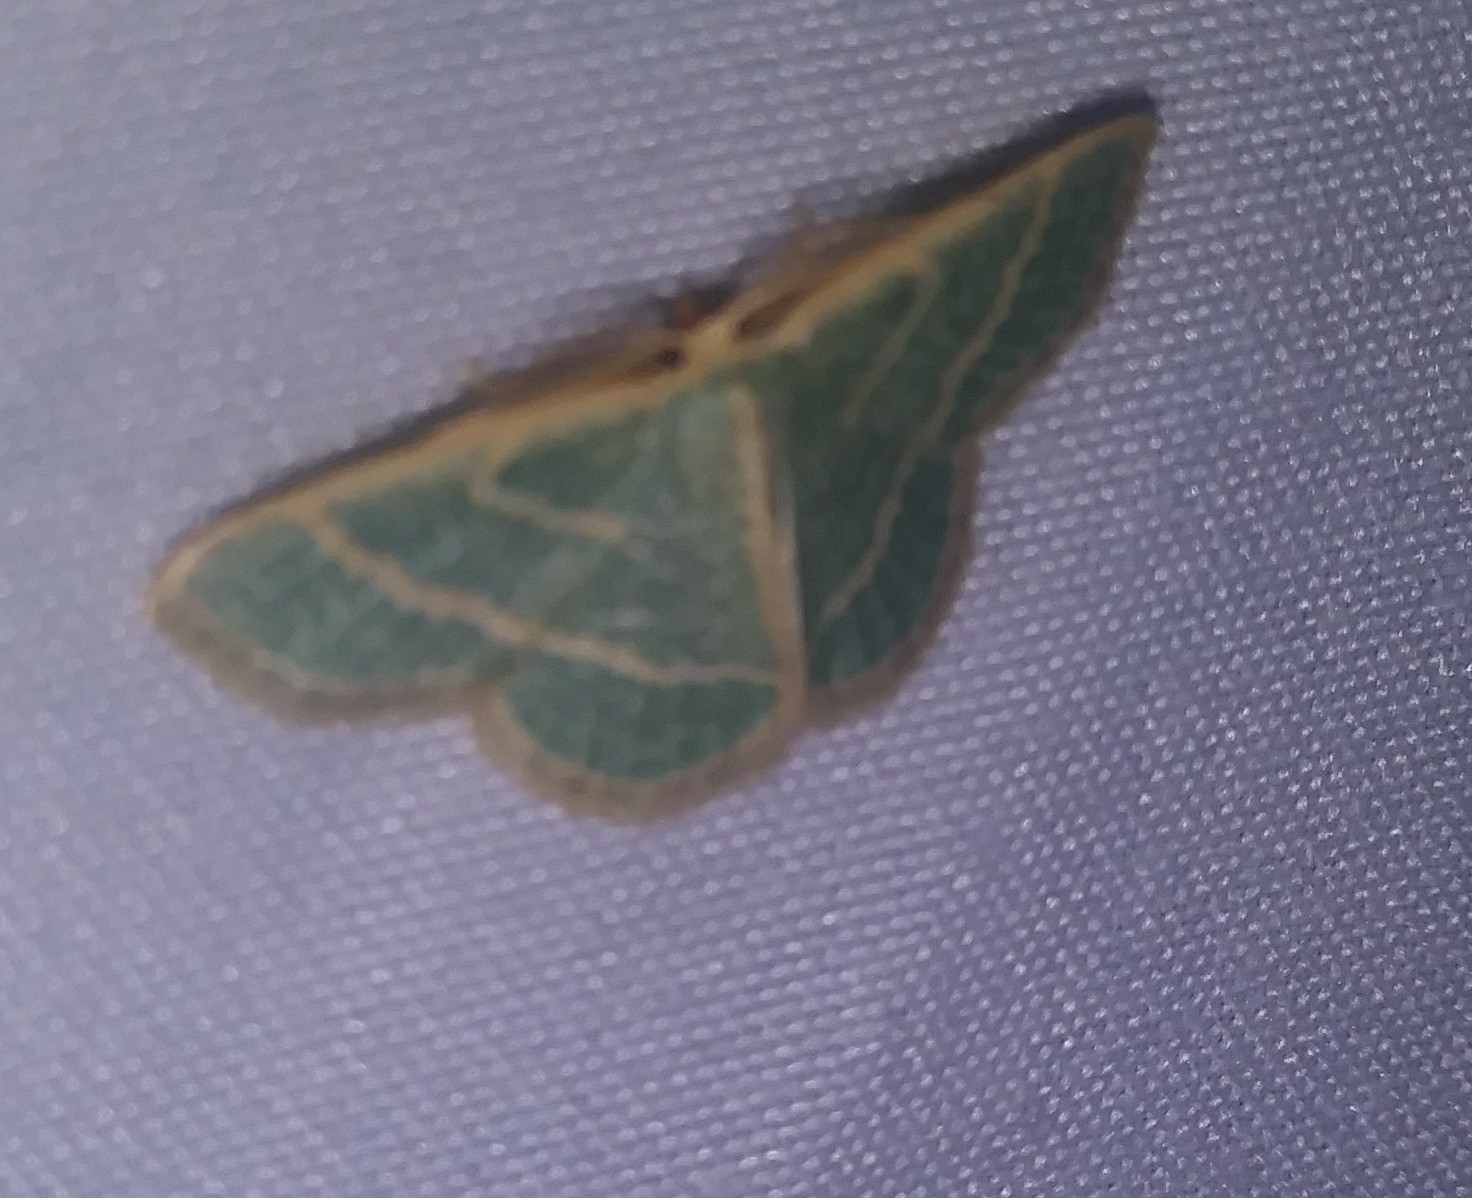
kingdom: Animalia
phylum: Arthropoda
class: Insecta
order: Lepidoptera
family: Geometridae
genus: Chlorochlamys
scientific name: Chlorochlamys chloroleucaria
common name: Blackberry looper
